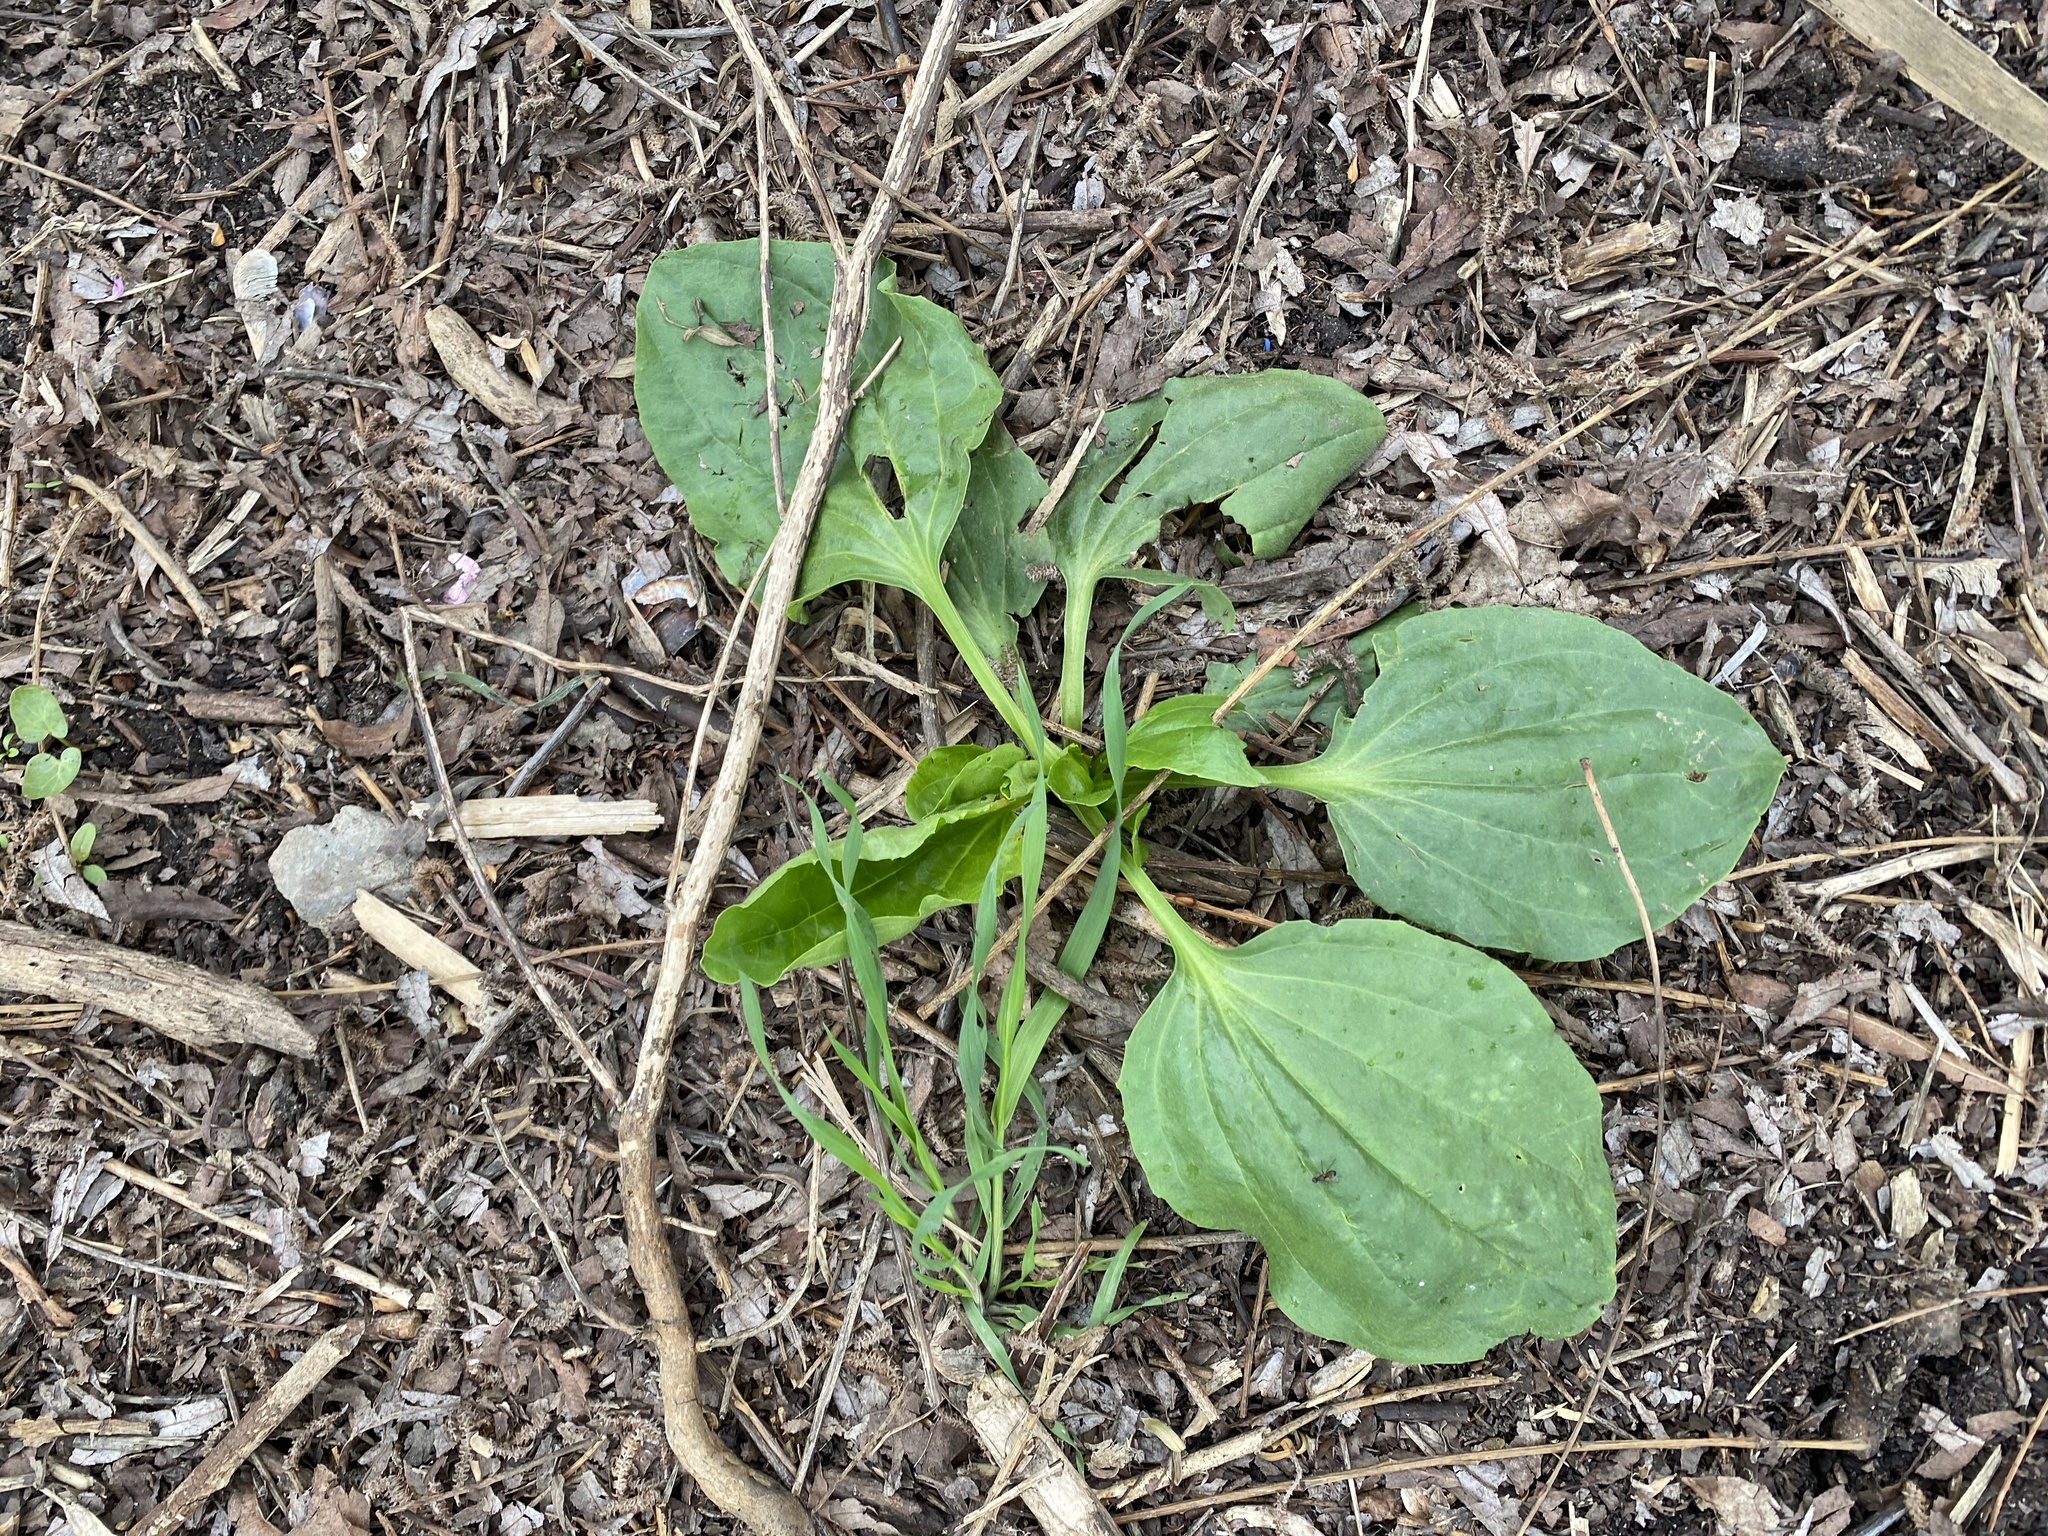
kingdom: Plantae
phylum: Tracheophyta
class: Magnoliopsida
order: Lamiales
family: Plantaginaceae
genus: Plantago
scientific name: Plantago major
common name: Common plantain
